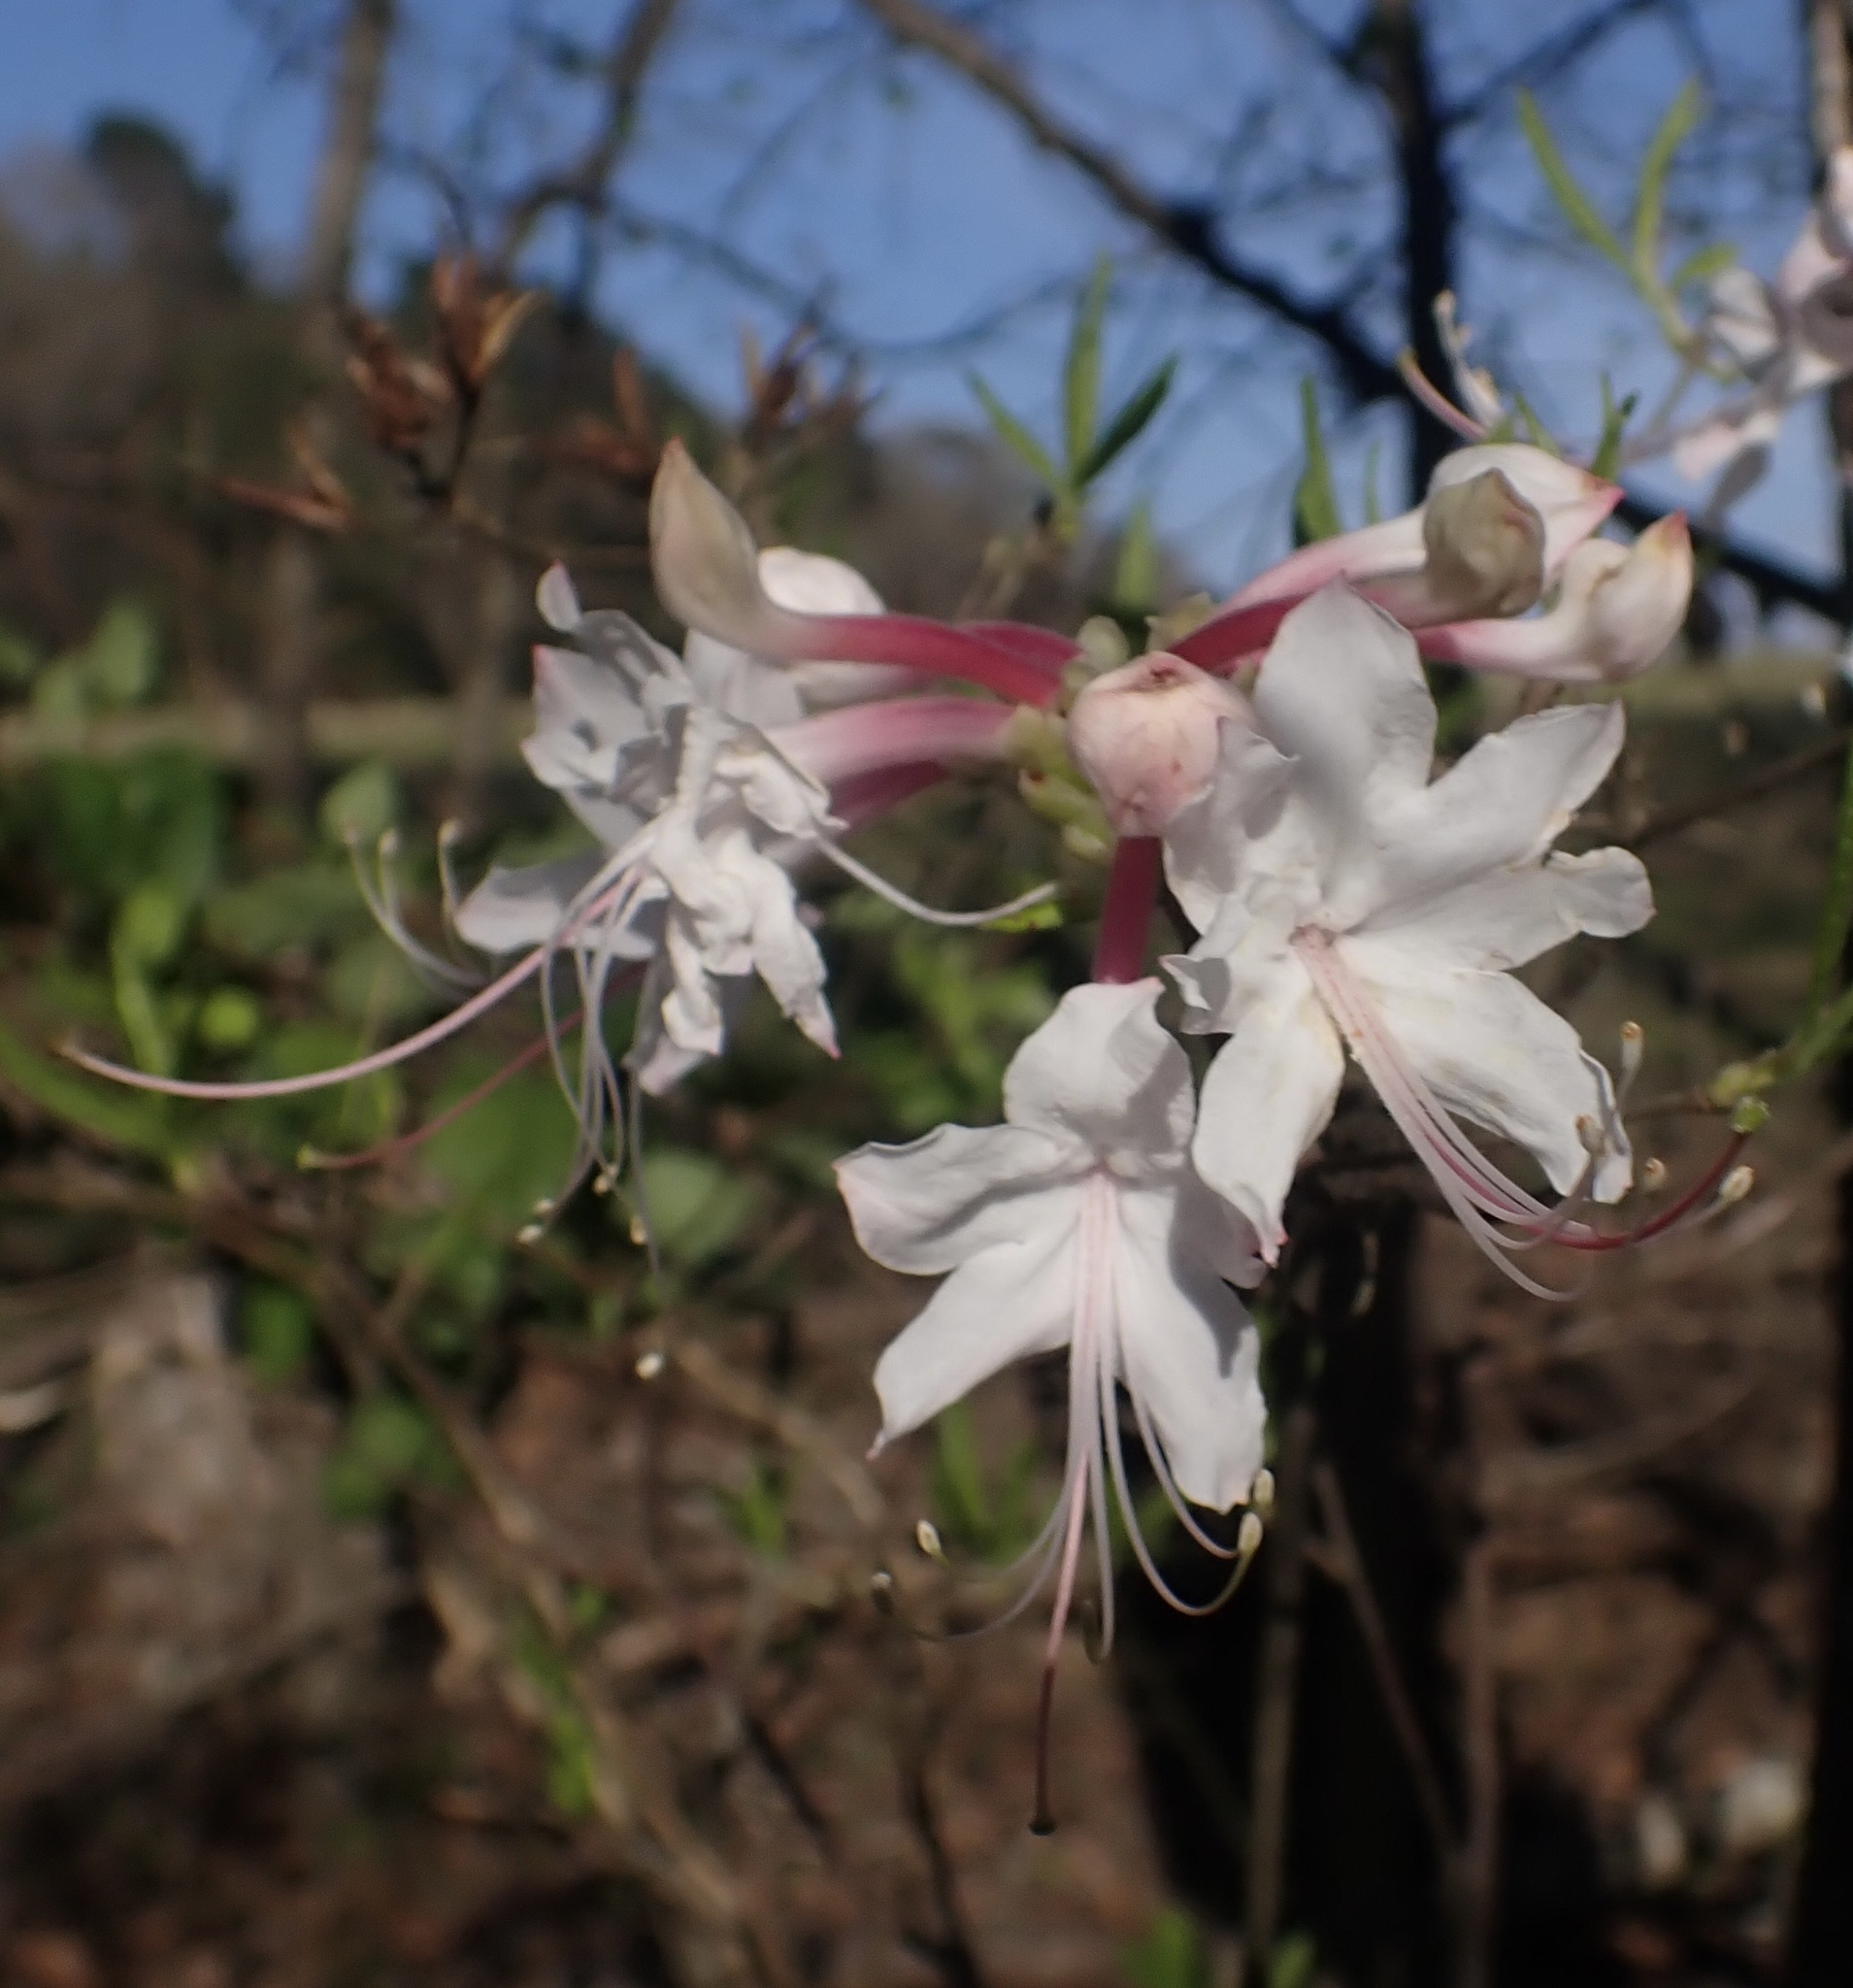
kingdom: Plantae
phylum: Tracheophyta
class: Magnoliopsida
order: Ericales
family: Ericaceae
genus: Rhododendron
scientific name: Rhododendron canescens
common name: Mountain azalea
